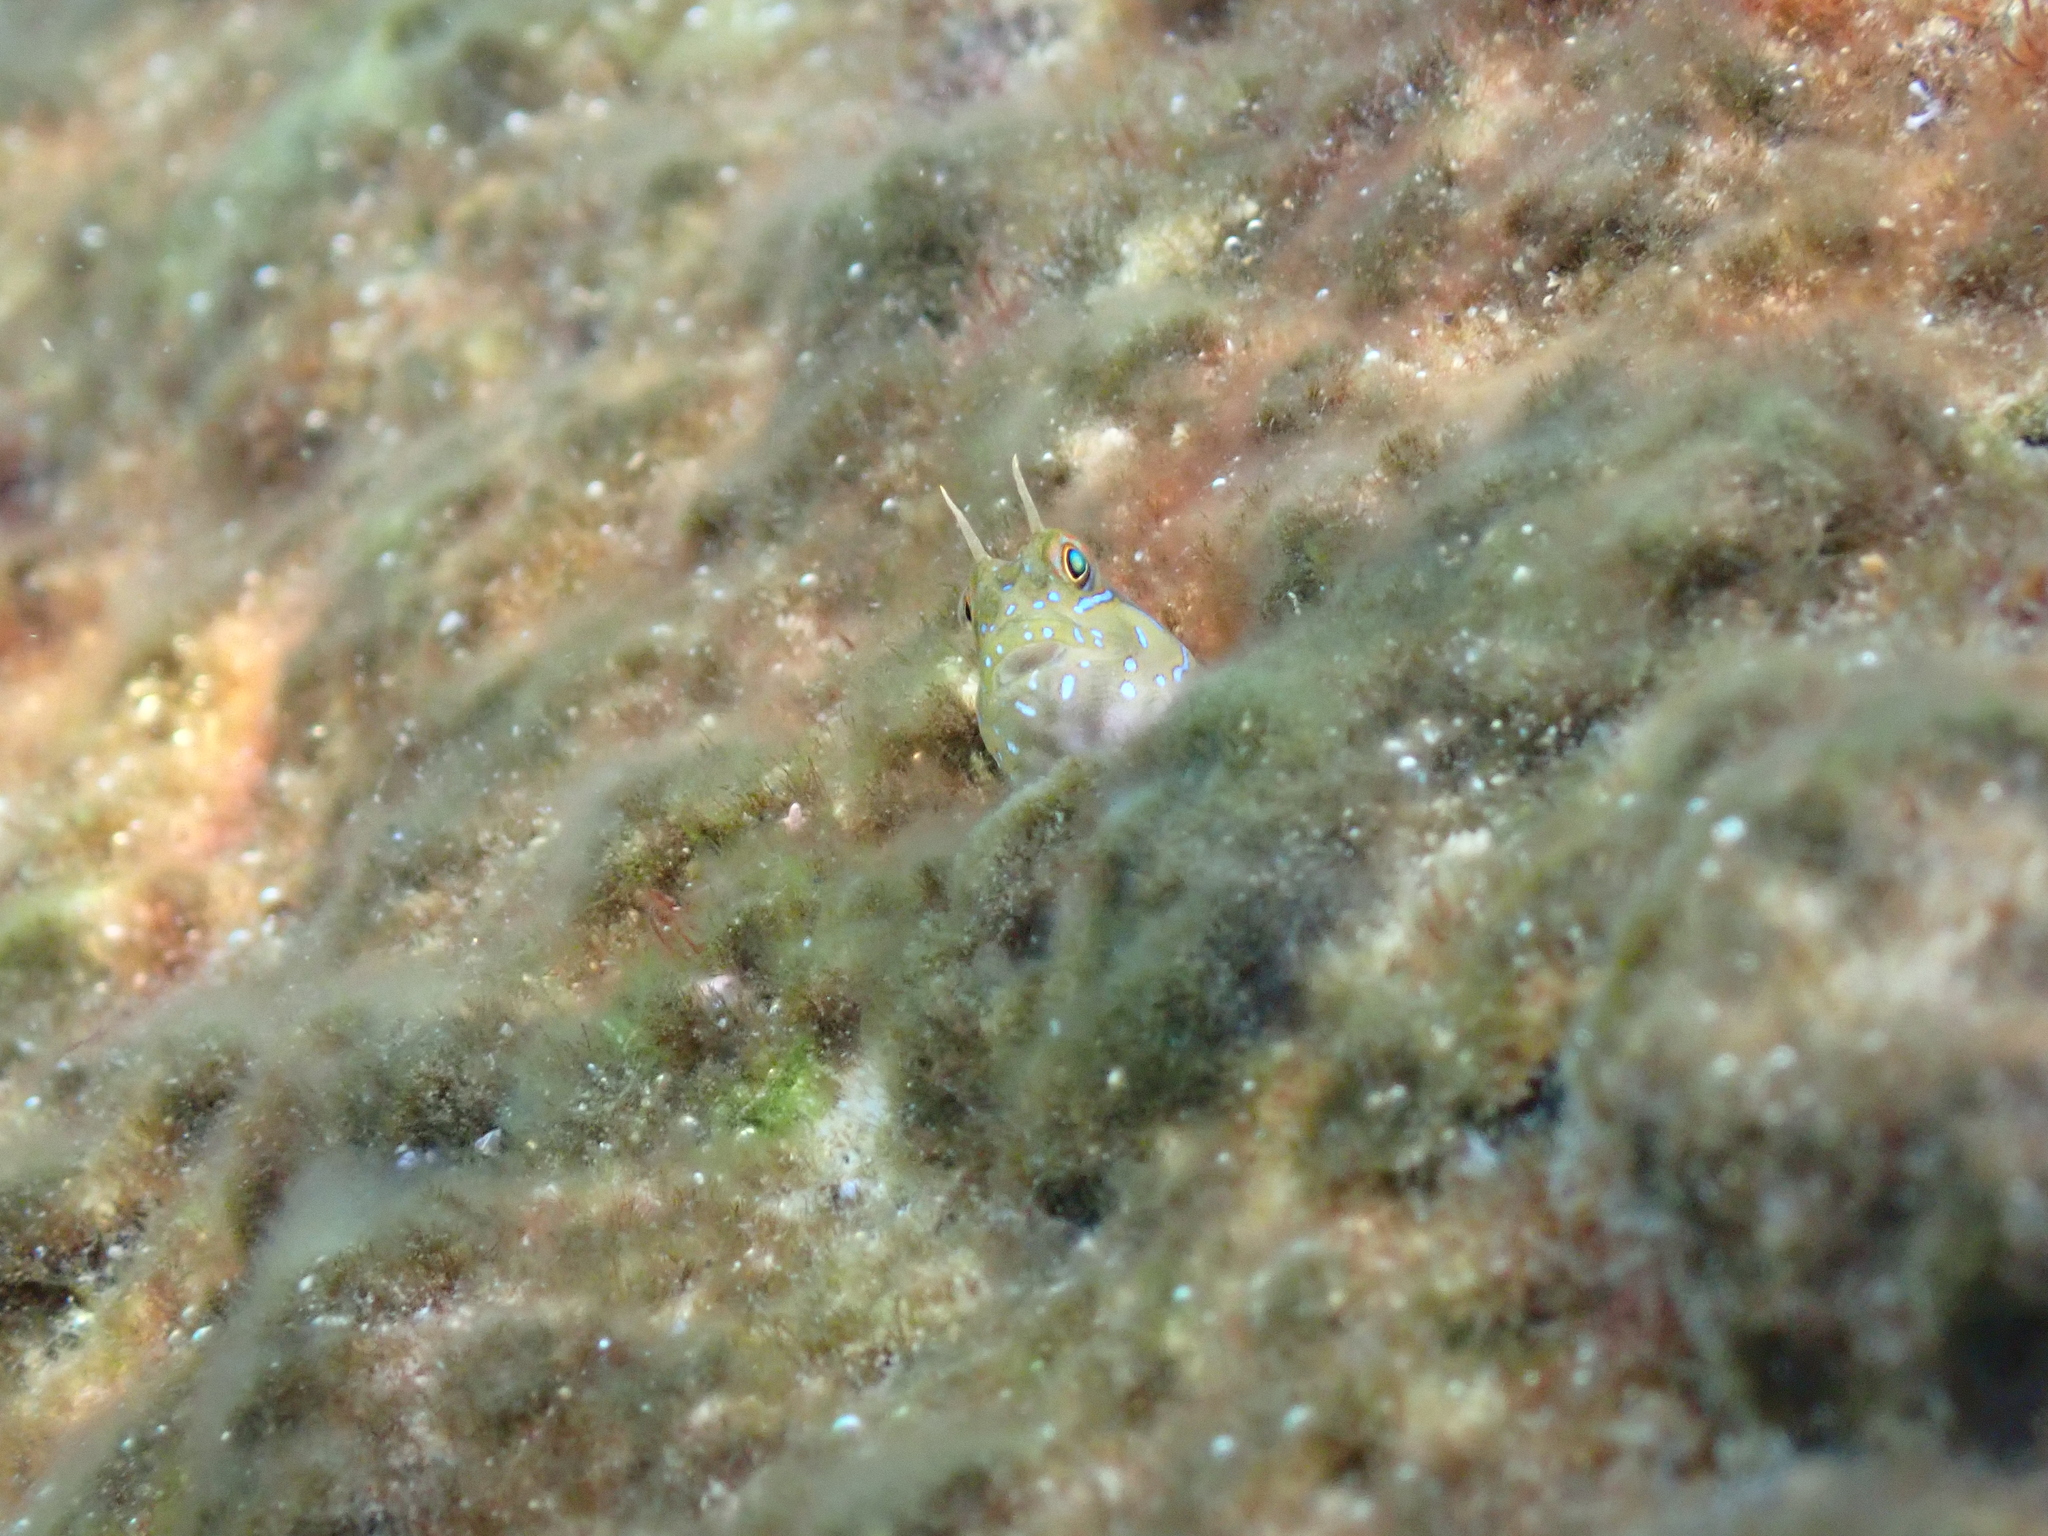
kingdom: Animalia
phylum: Chordata
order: Perciformes
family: Blenniidae
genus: Aidablennius
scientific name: Aidablennius sphynx
